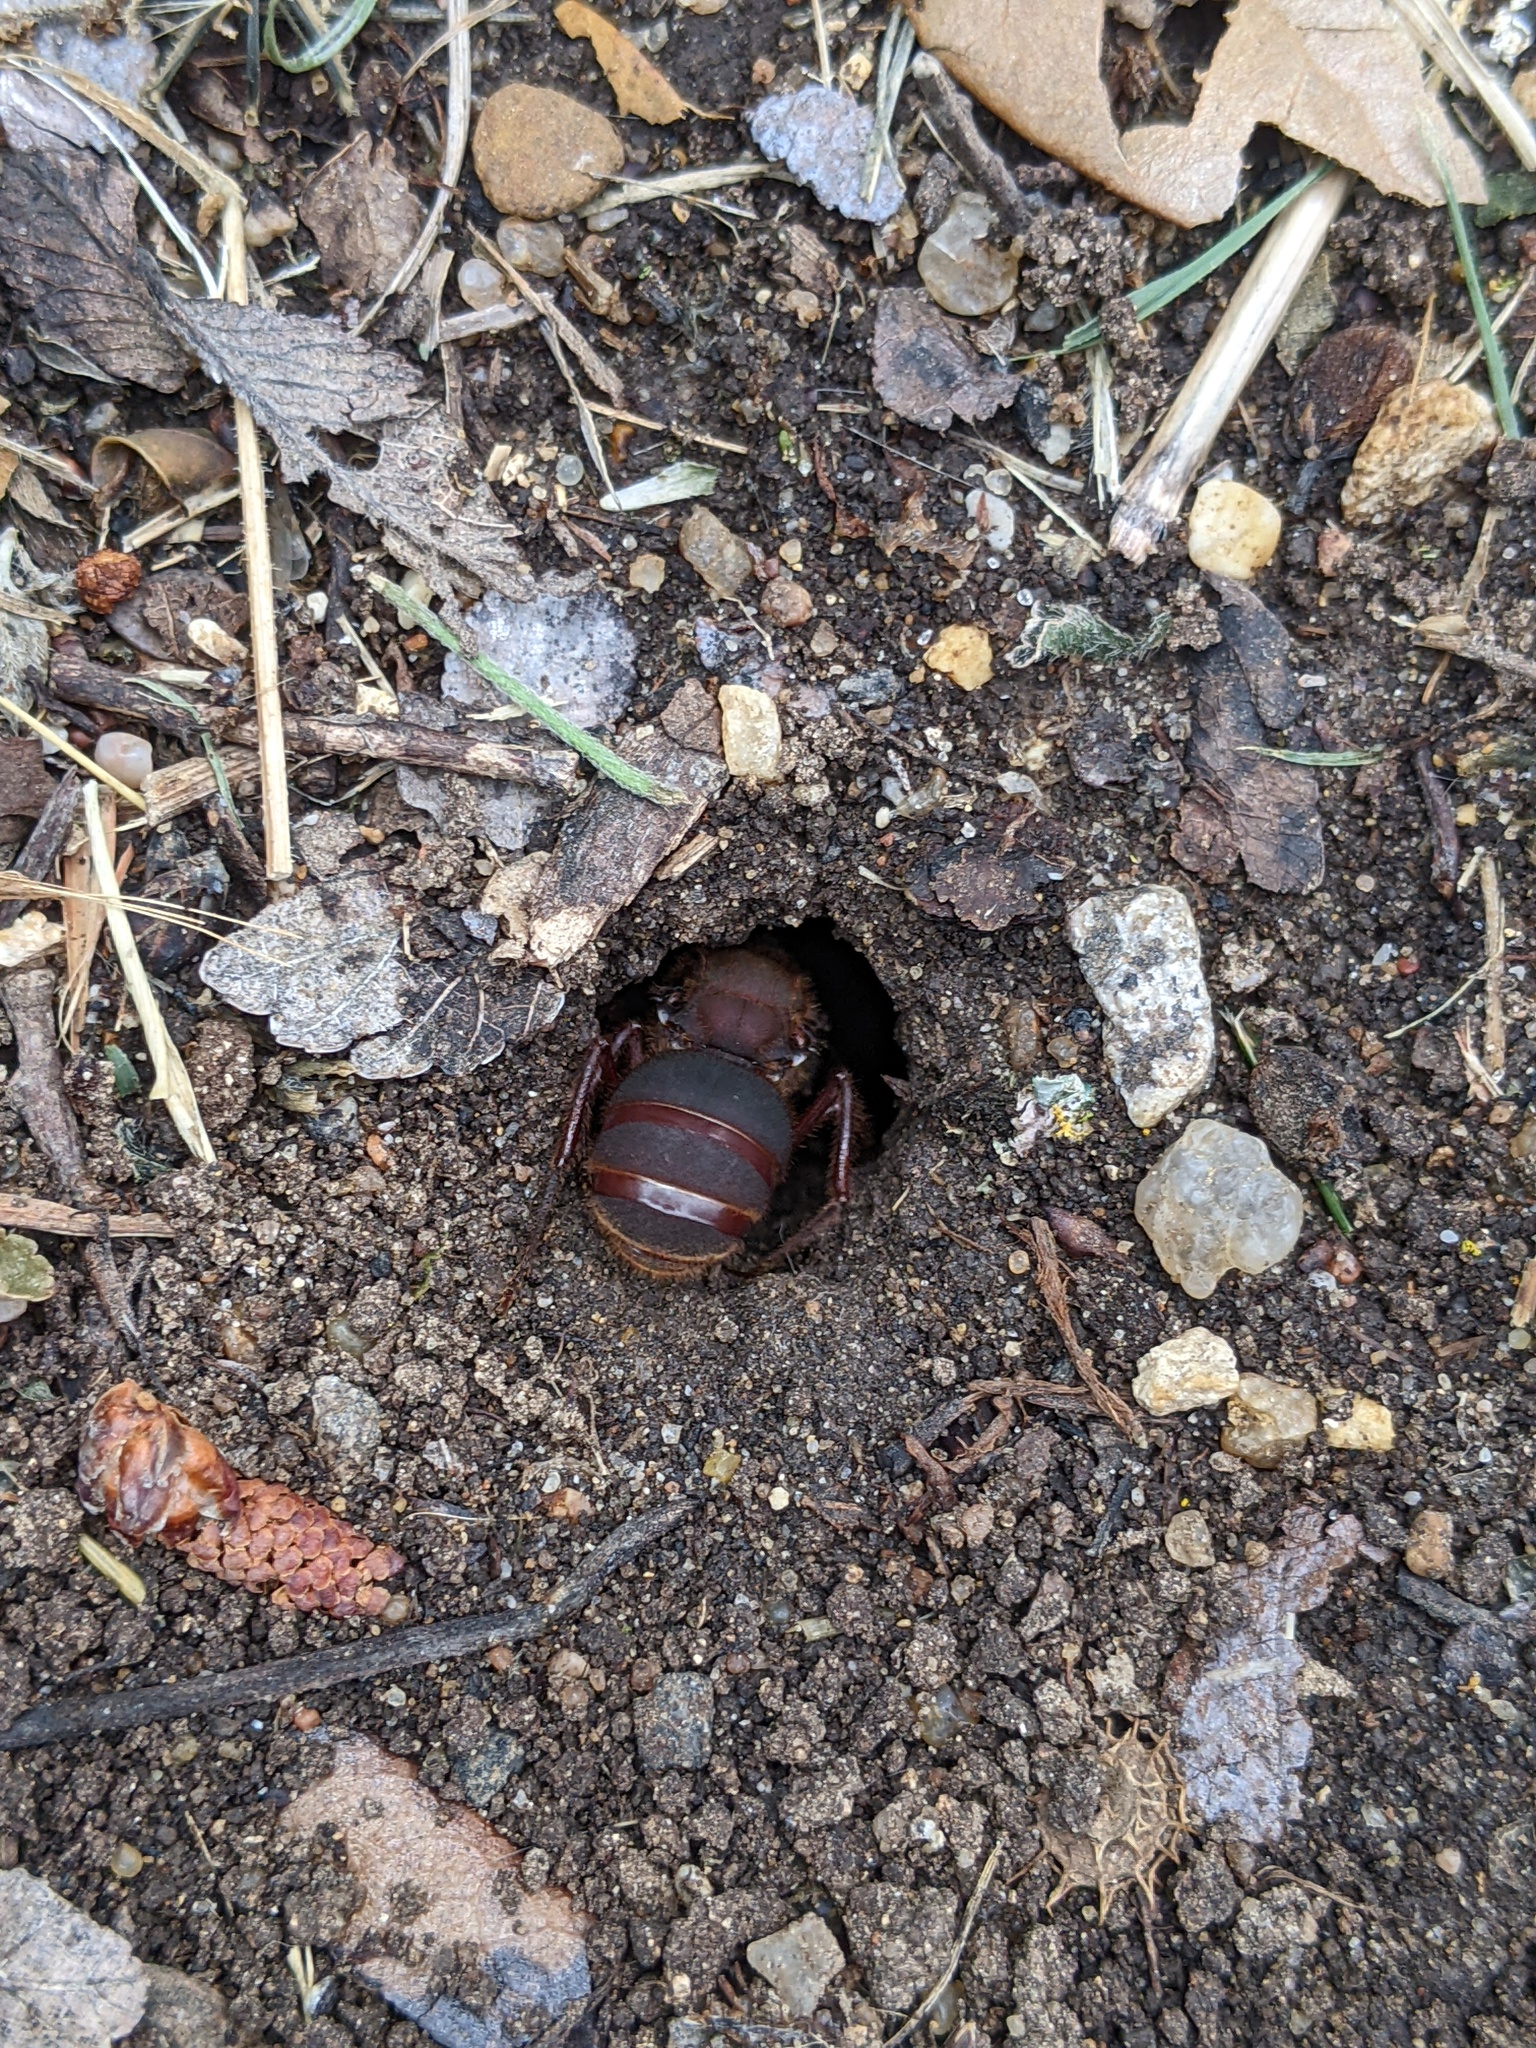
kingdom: Animalia
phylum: Arthropoda
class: Insecta
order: Hymenoptera
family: Formicidae
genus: Atta
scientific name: Atta texana
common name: Texas leafcutting ant
